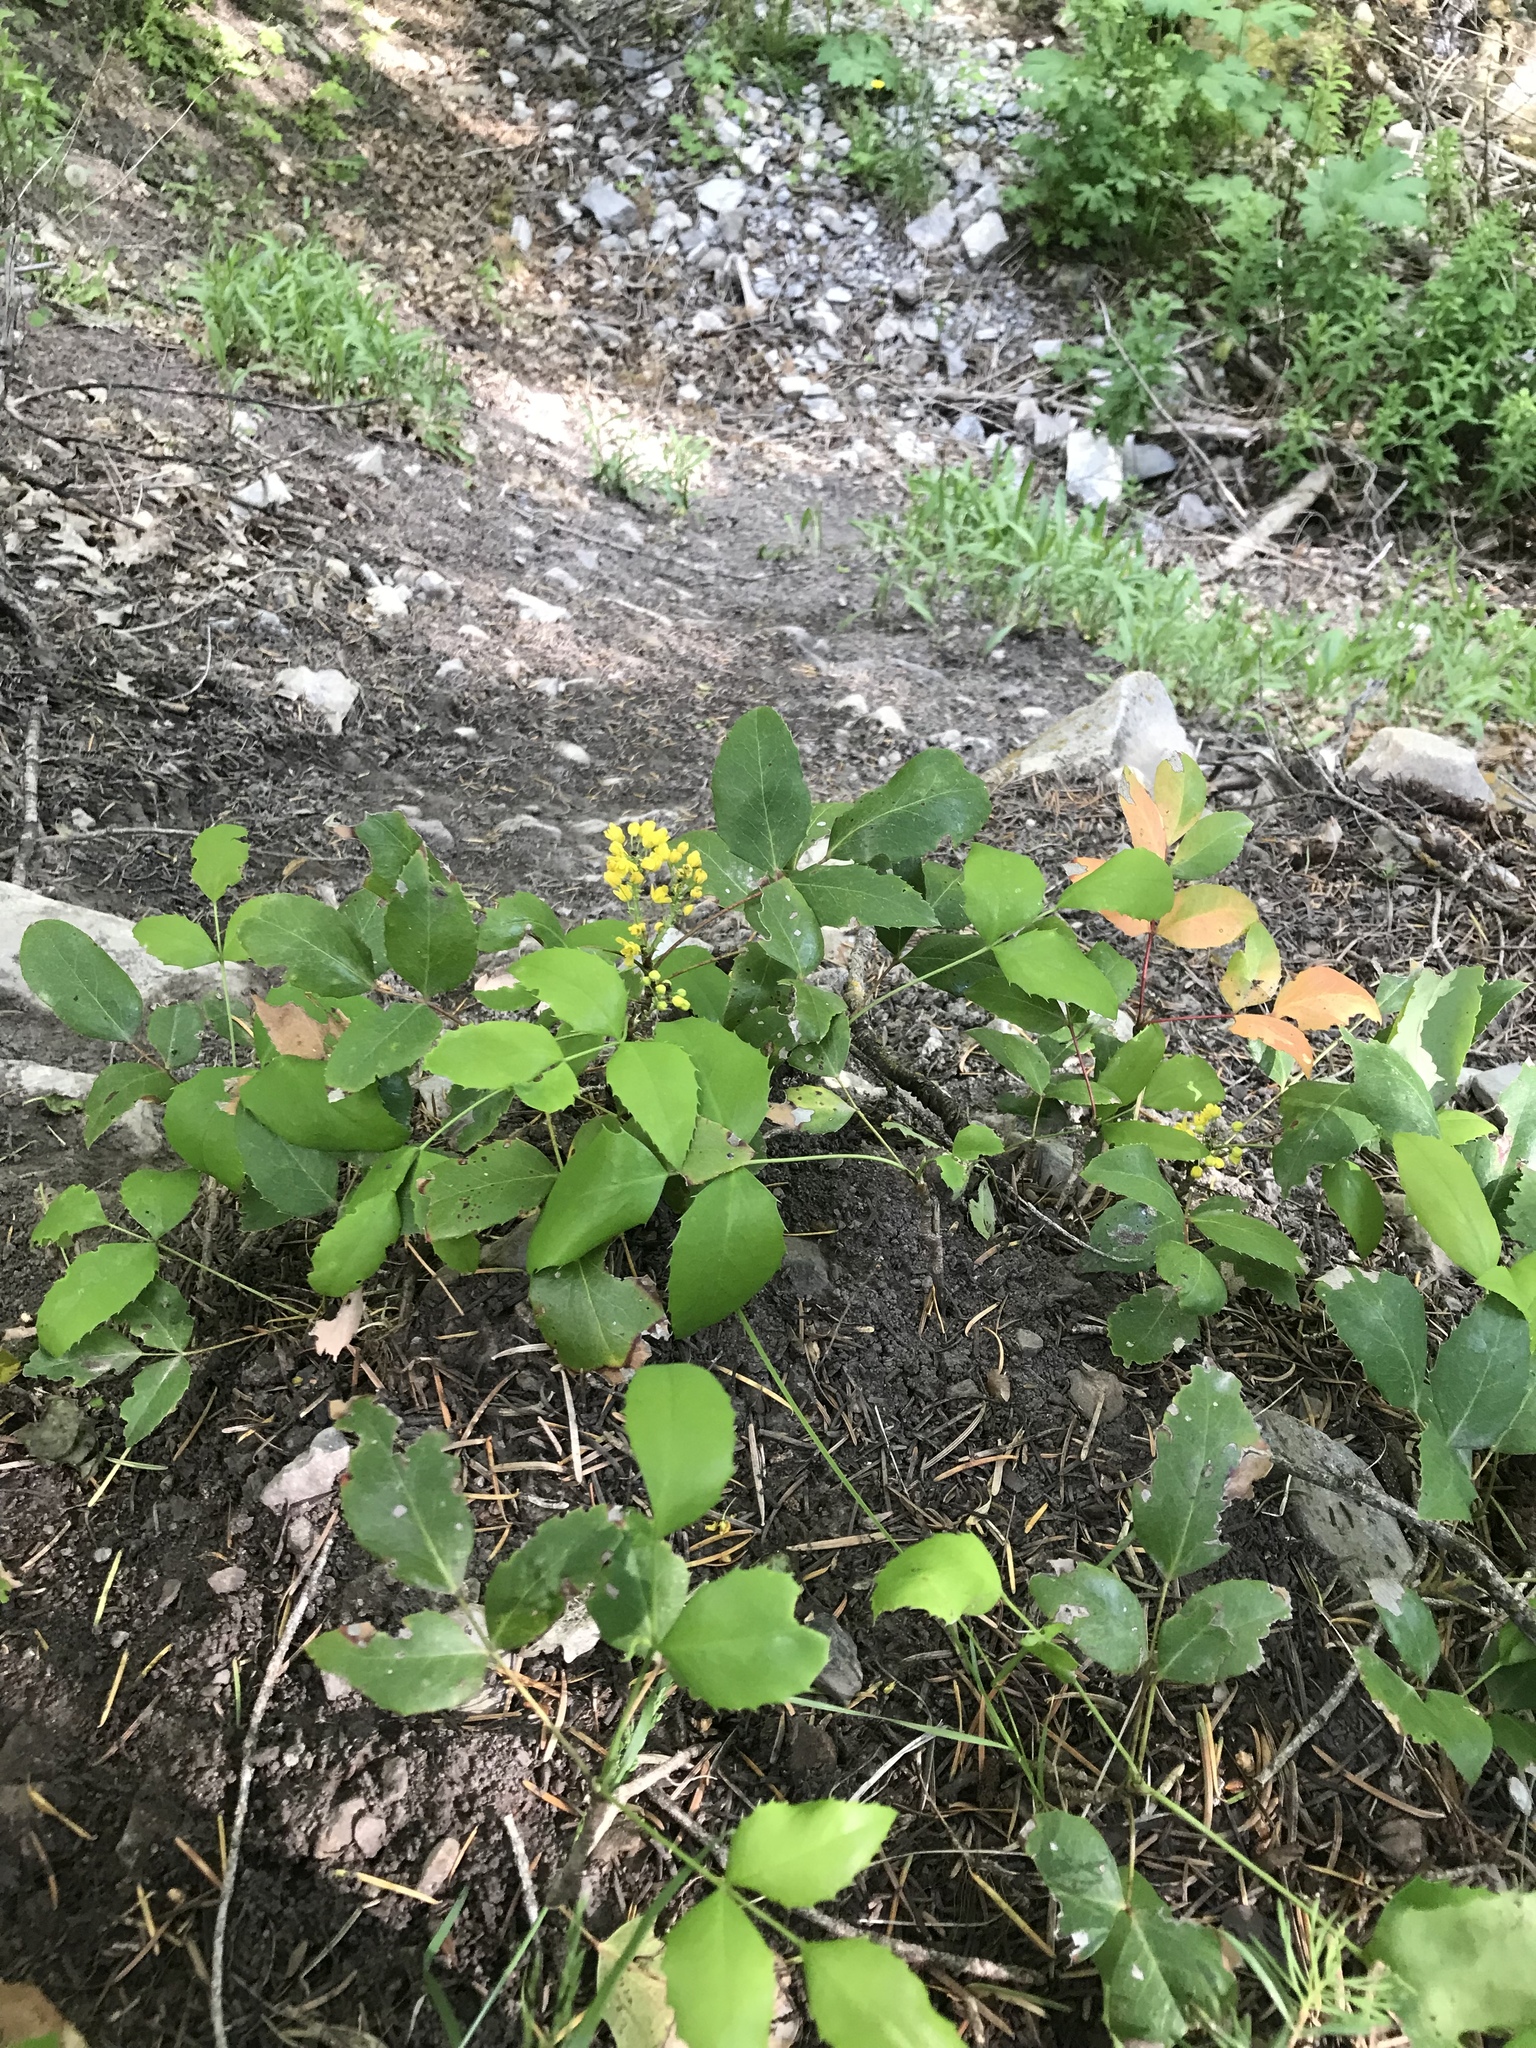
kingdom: Plantae
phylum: Tracheophyta
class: Magnoliopsida
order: Ranunculales
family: Berberidaceae
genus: Mahonia
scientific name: Mahonia repens
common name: Creeping oregon-grape
